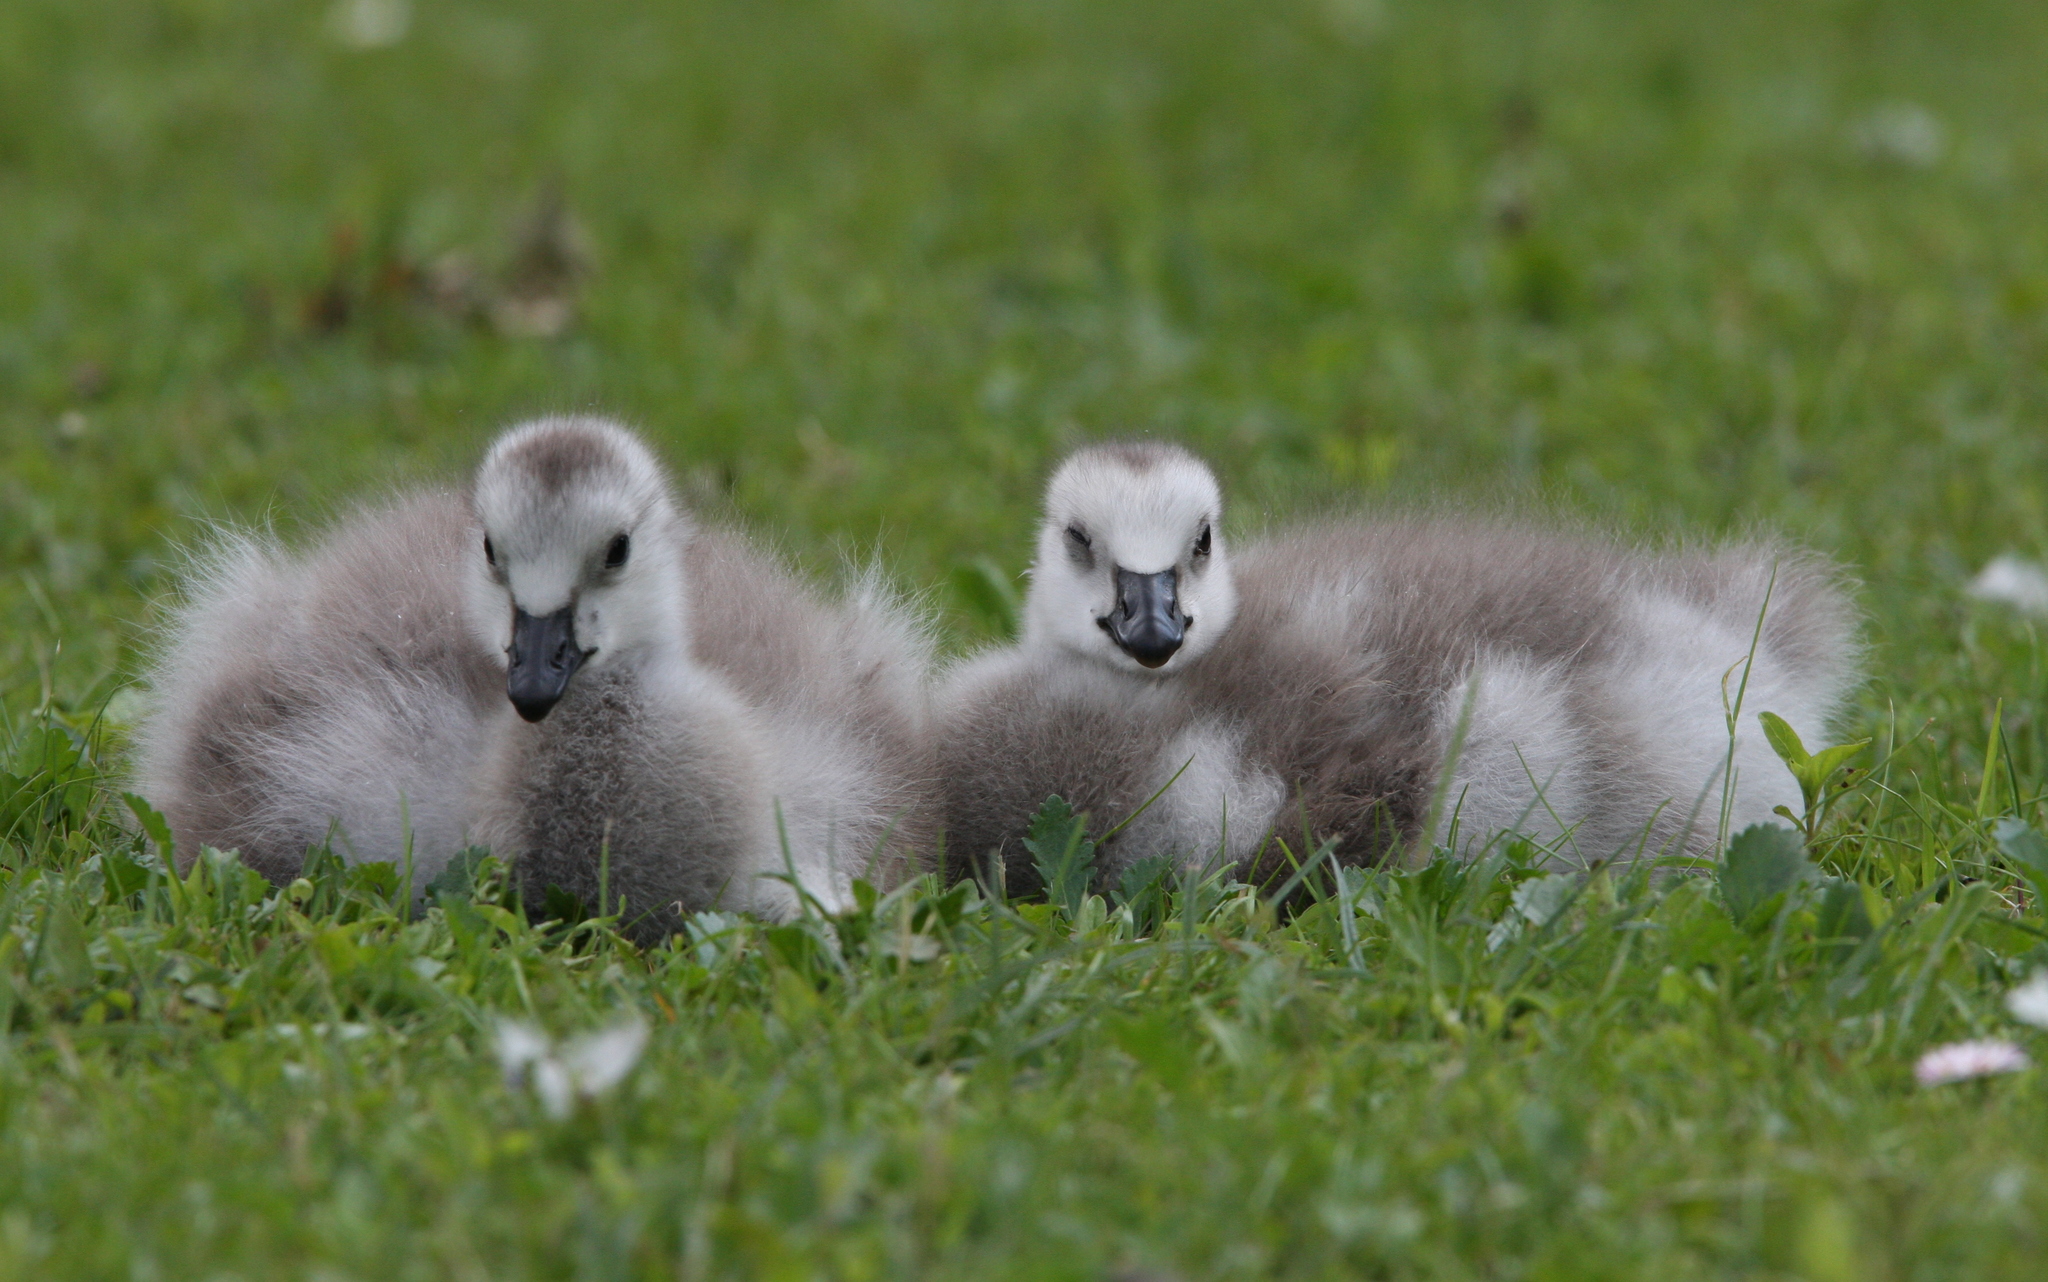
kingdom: Animalia
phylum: Chordata
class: Aves
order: Anseriformes
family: Anatidae
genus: Branta
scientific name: Branta leucopsis
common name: Barnacle goose
